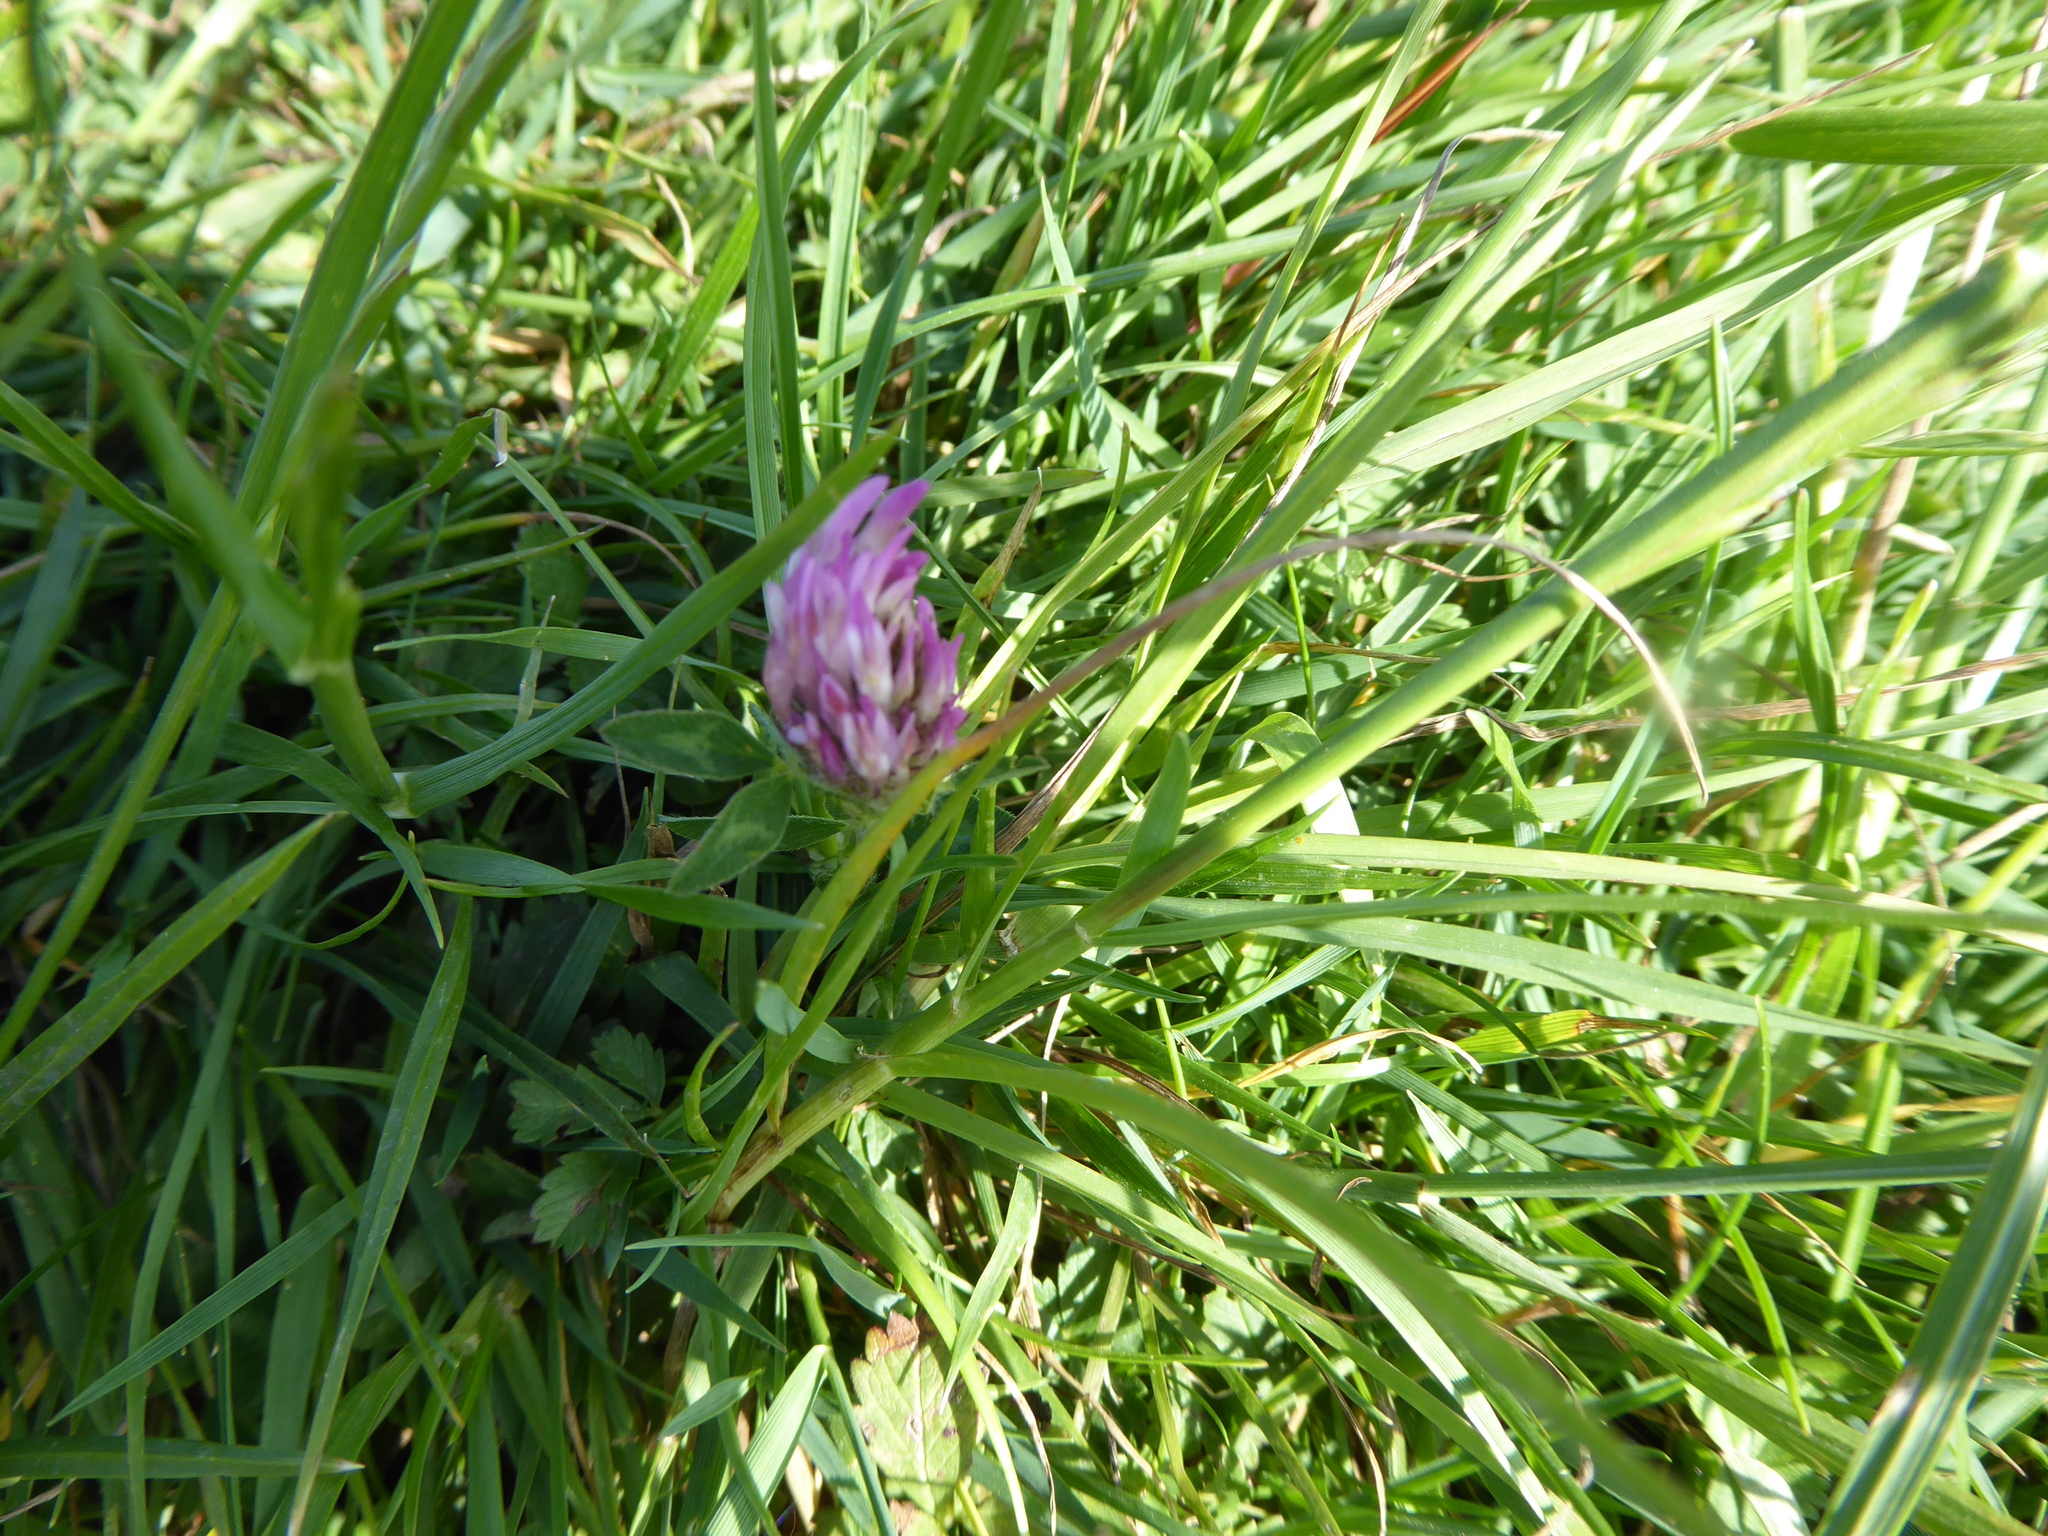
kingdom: Plantae
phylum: Tracheophyta
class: Magnoliopsida
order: Fabales
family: Fabaceae
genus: Trifolium
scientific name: Trifolium pratense
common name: Red clover
